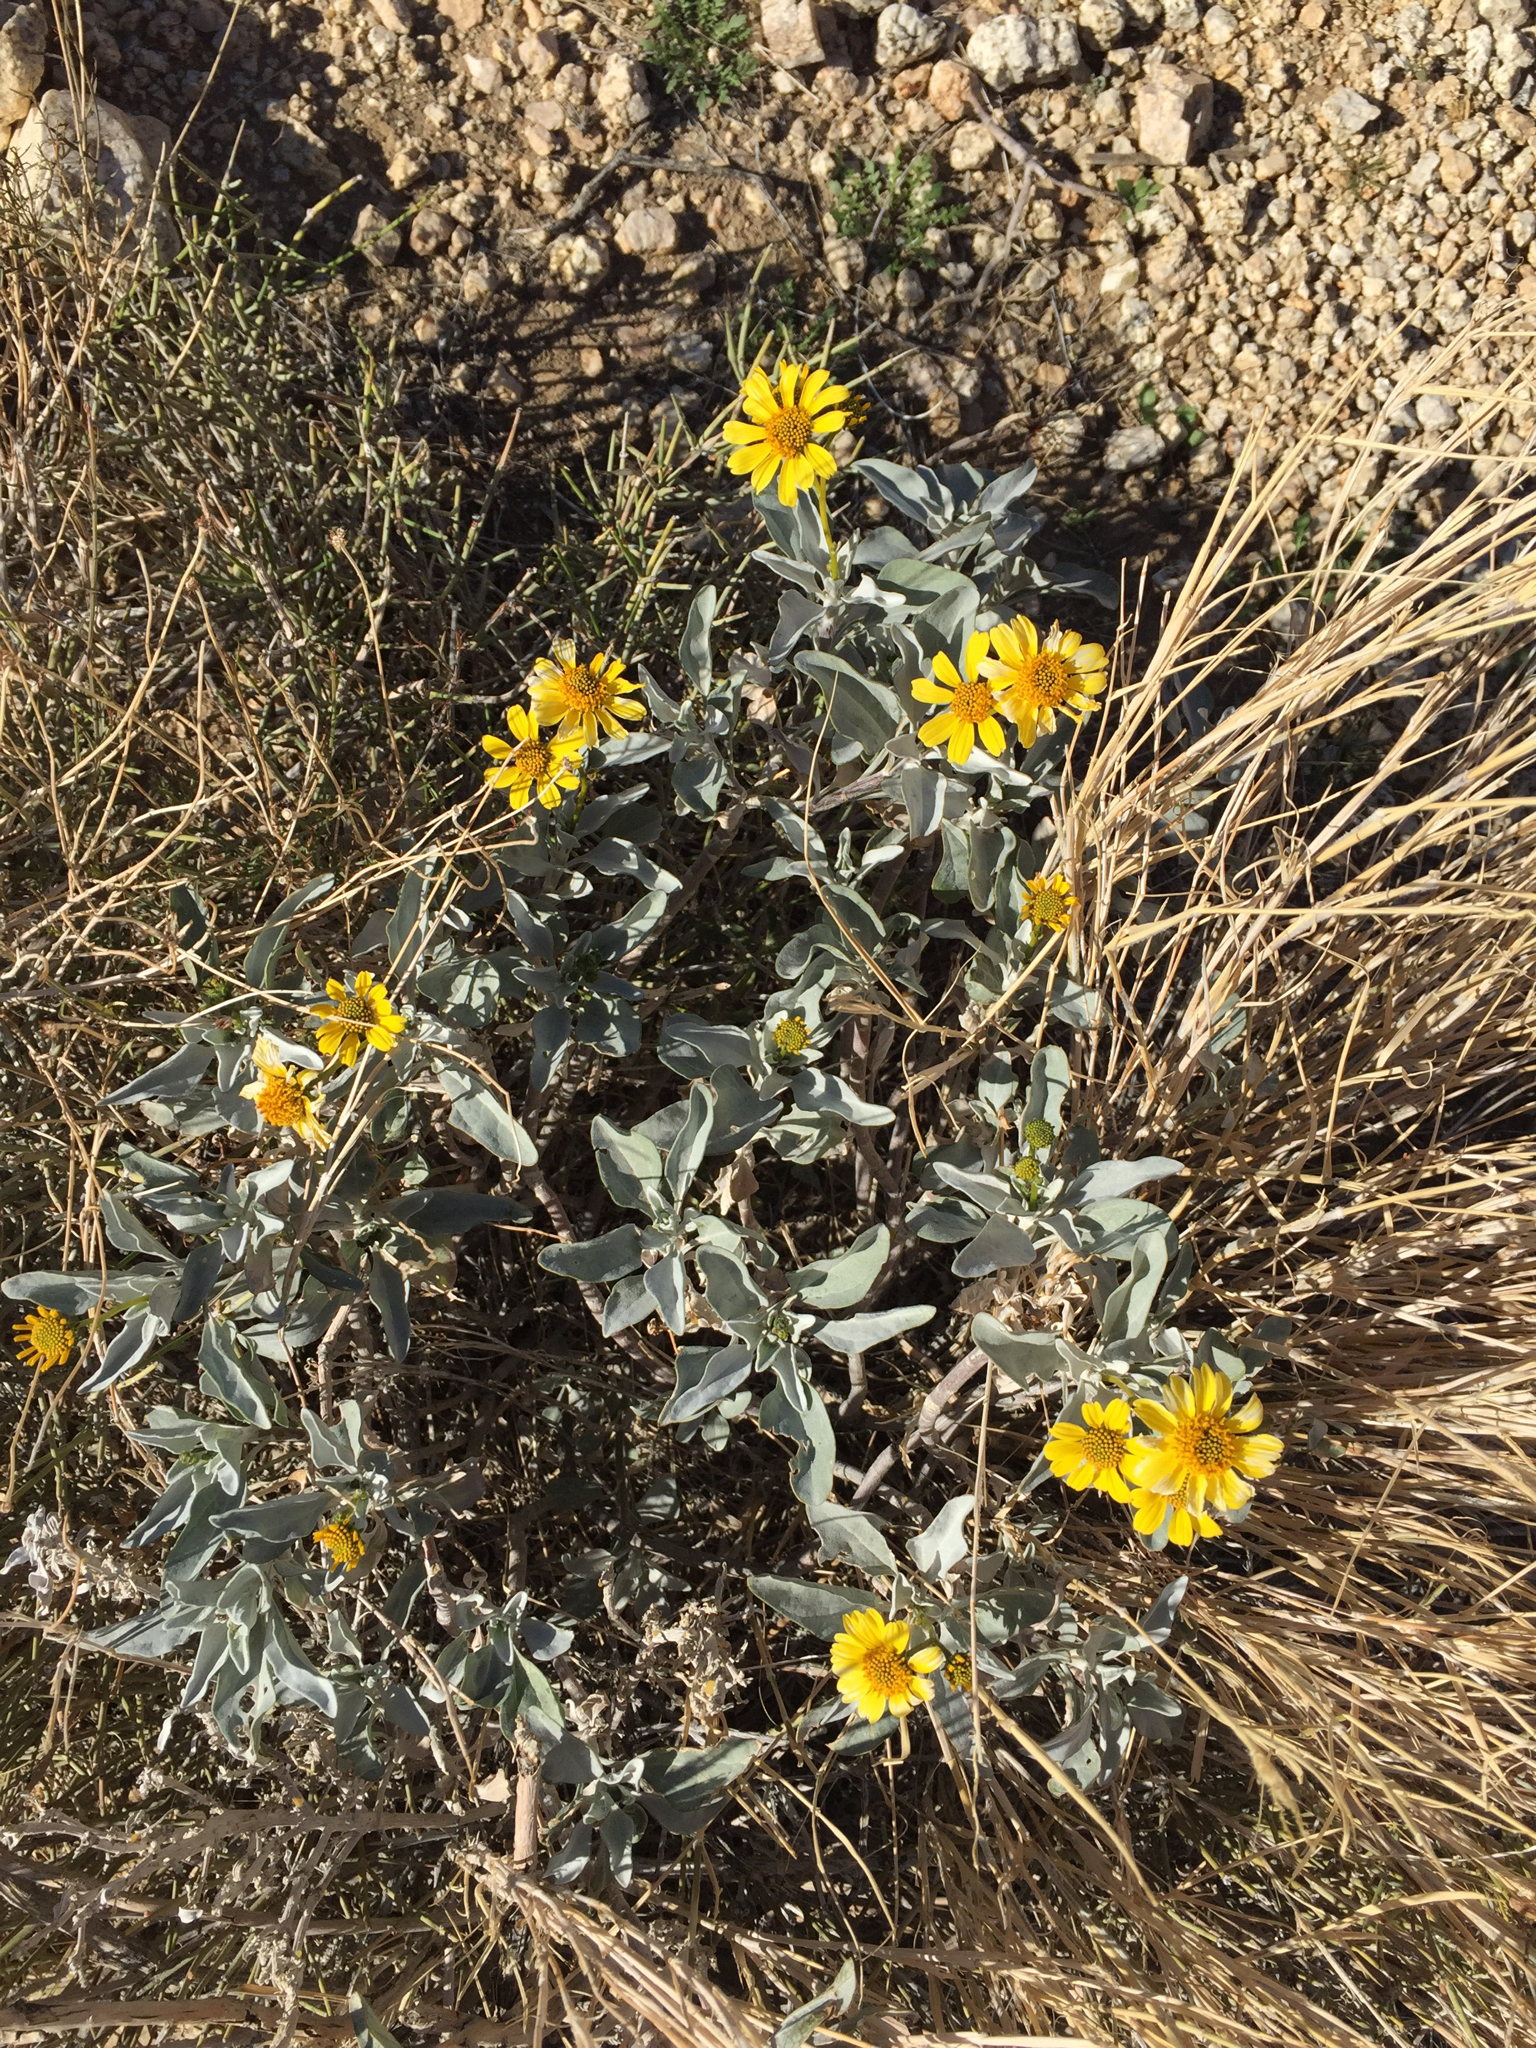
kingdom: Plantae
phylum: Tracheophyta
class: Magnoliopsida
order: Asterales
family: Asteraceae
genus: Encelia
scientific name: Encelia farinosa
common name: Brittlebush
